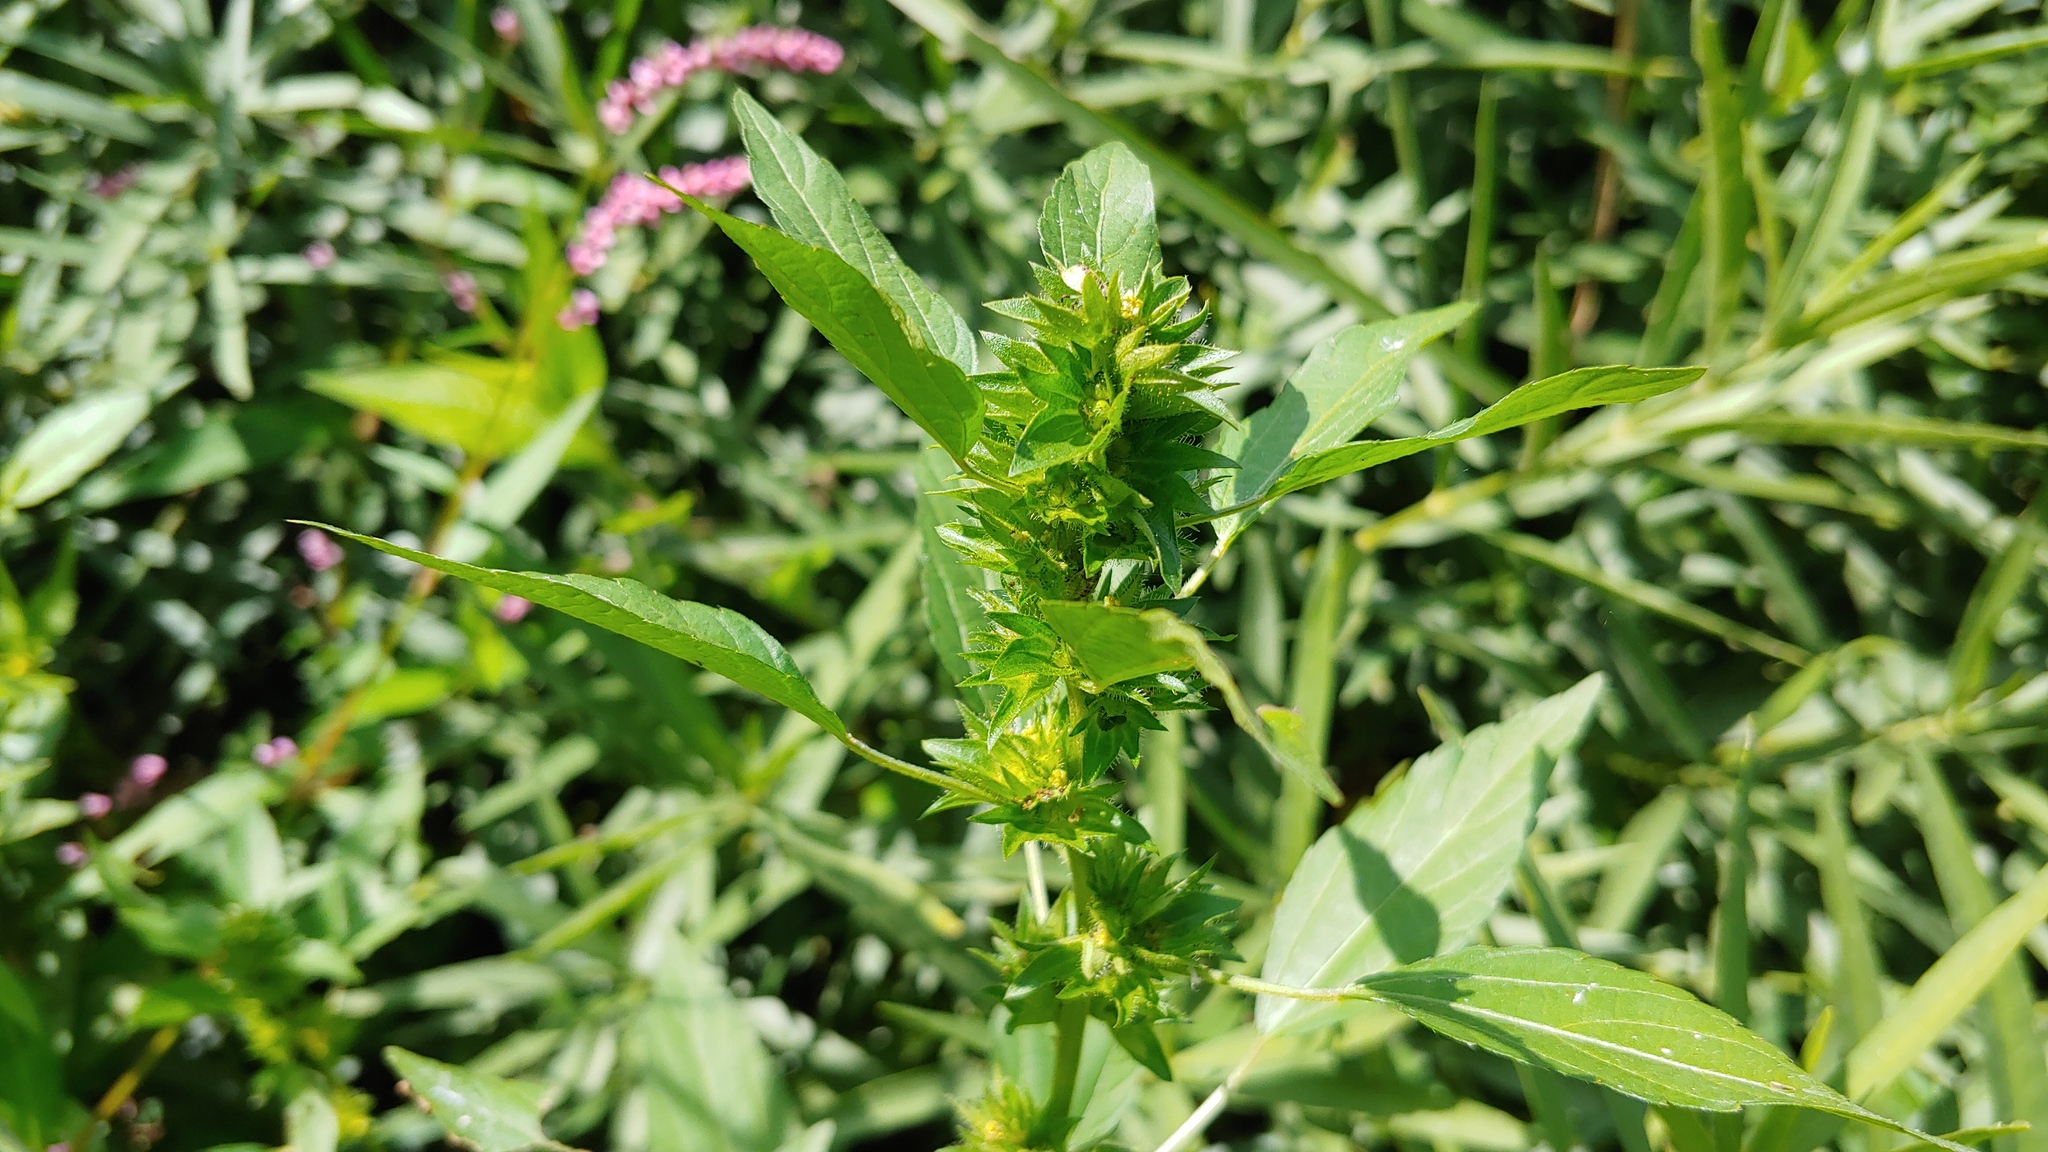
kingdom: Plantae
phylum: Tracheophyta
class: Magnoliopsida
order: Malpighiales
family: Euphorbiaceae
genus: Acalypha
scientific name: Acalypha rhomboidea
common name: Rhombic copperleaf
